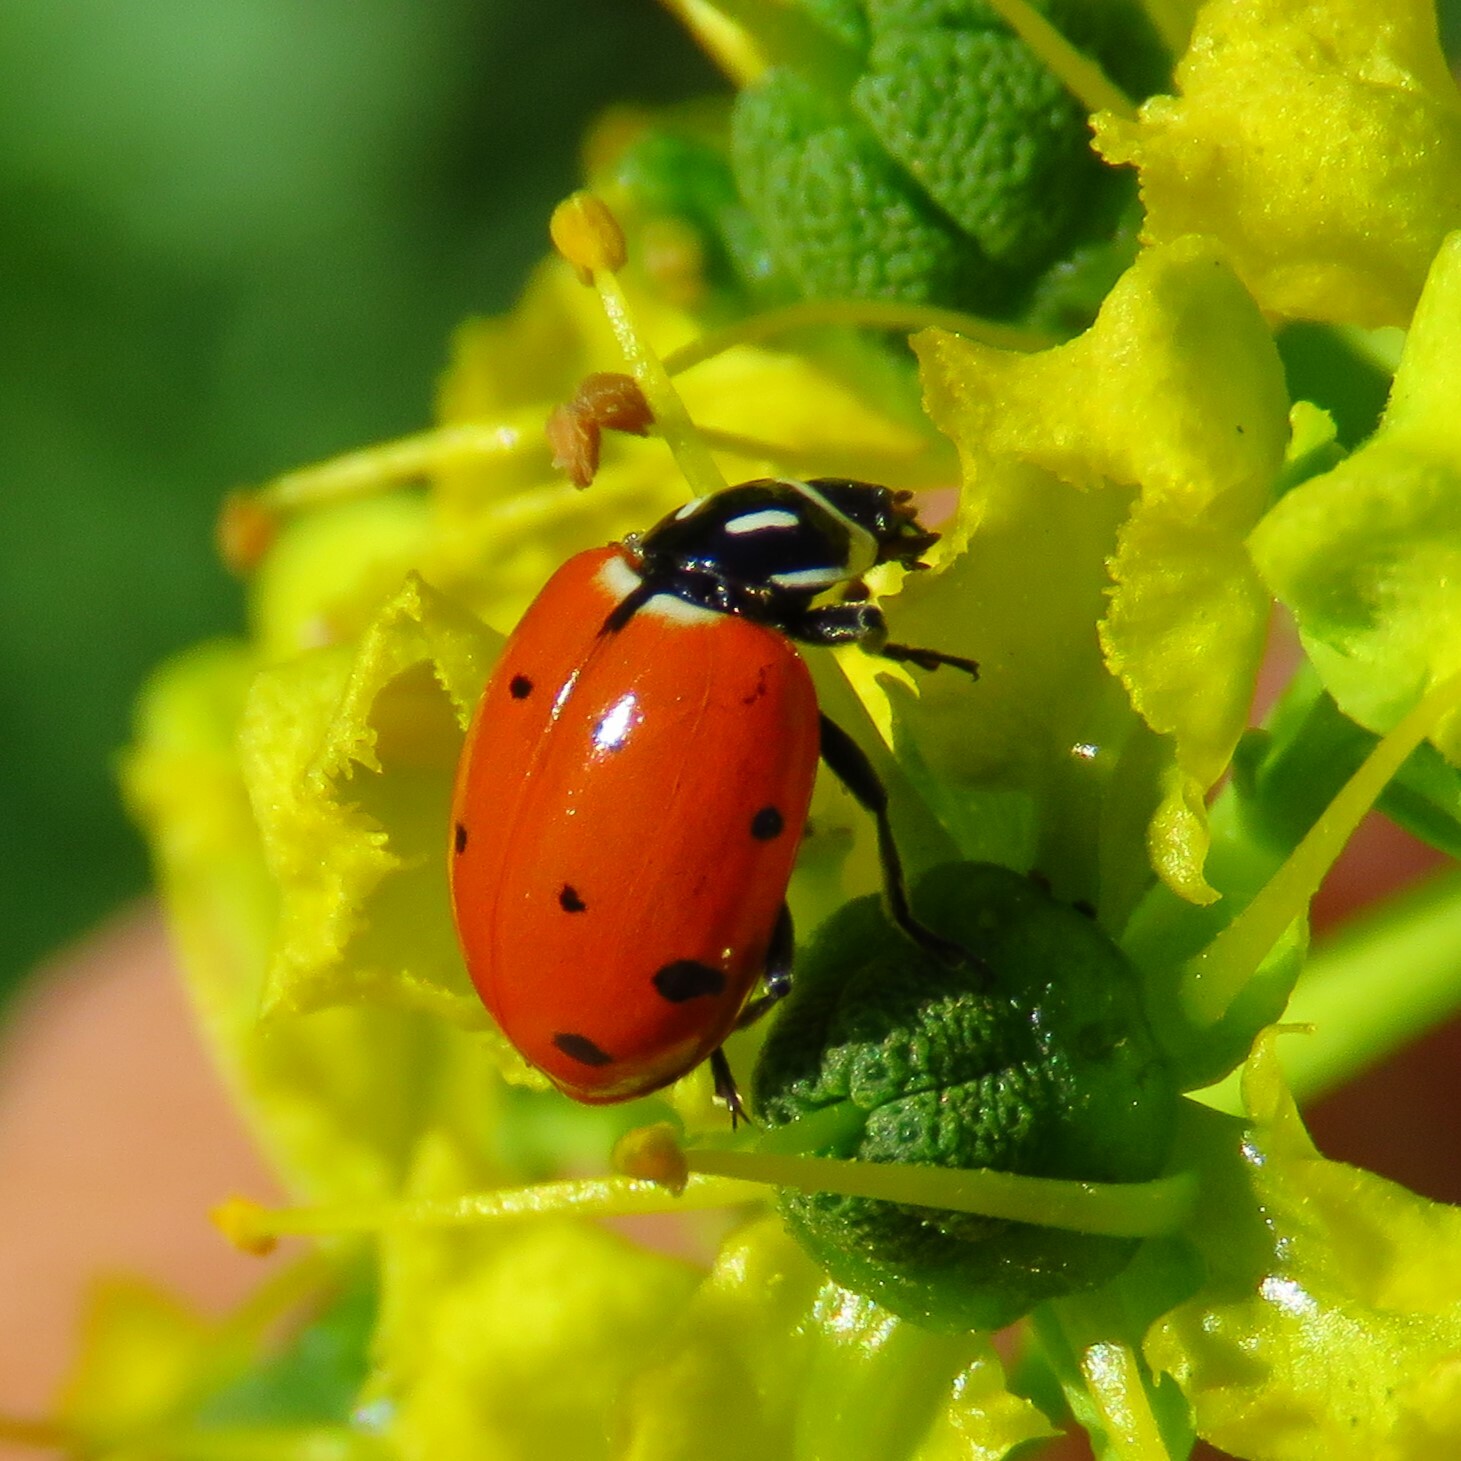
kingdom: Animalia
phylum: Arthropoda
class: Insecta
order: Coleoptera
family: Coccinellidae
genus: Hippodamia
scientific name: Hippodamia convergens
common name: Convergent lady beetle
